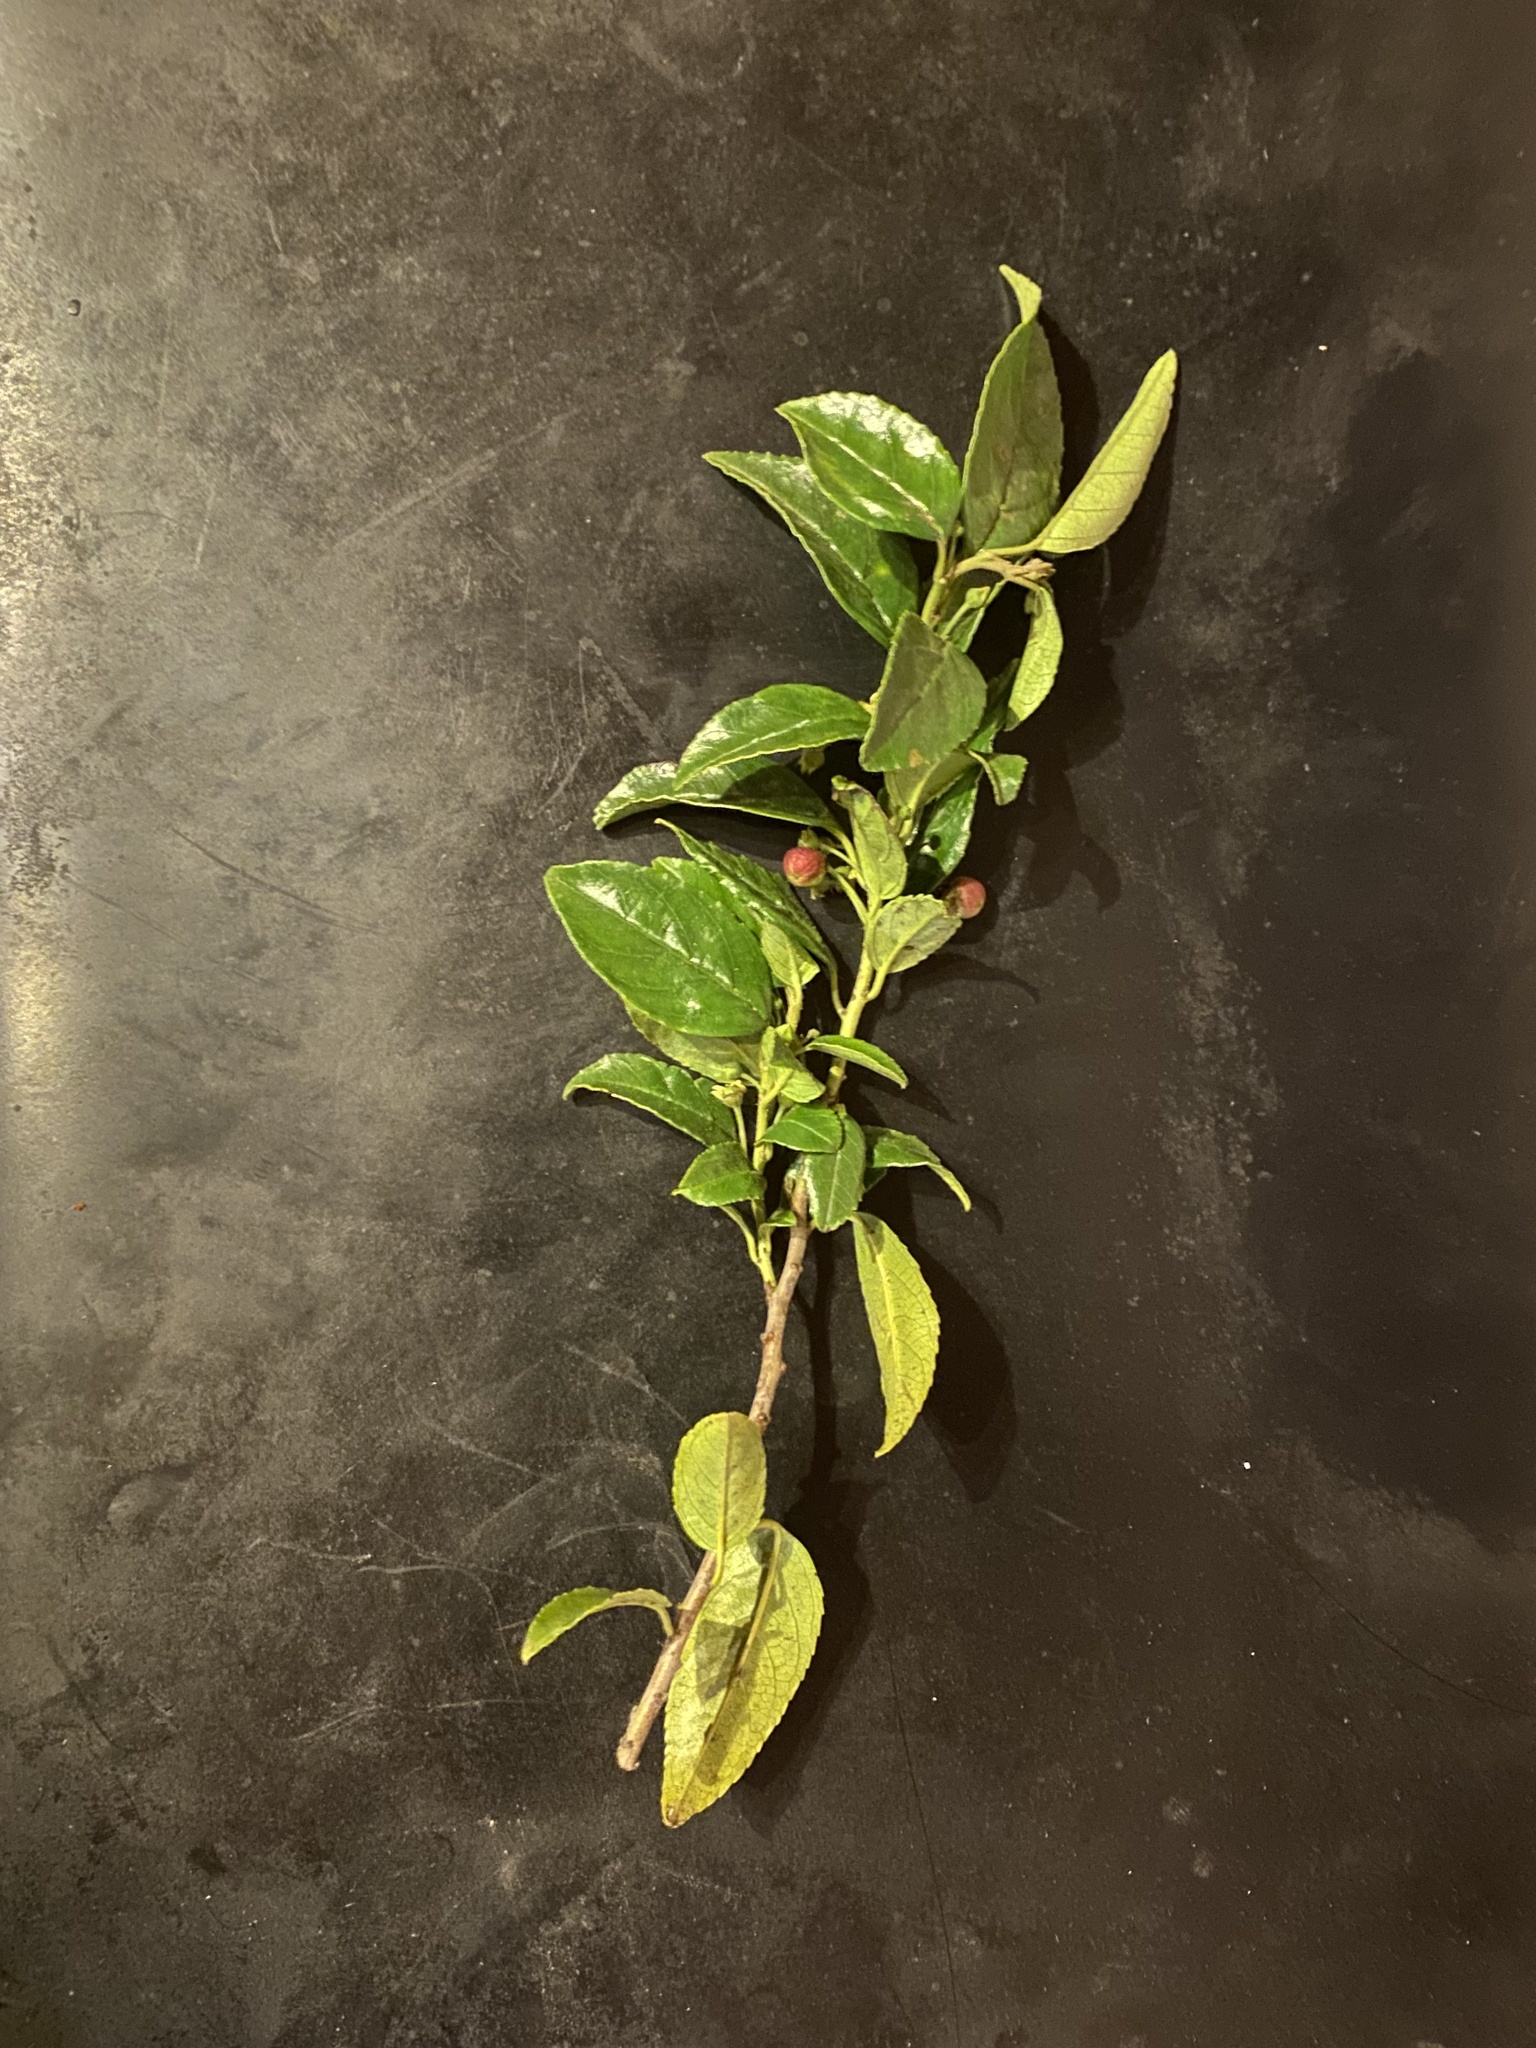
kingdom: Plantae
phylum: Tracheophyta
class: Magnoliopsida
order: Rosales
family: Rhamnaceae
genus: Rhamnus
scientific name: Rhamnus prinoides
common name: Dogwood
